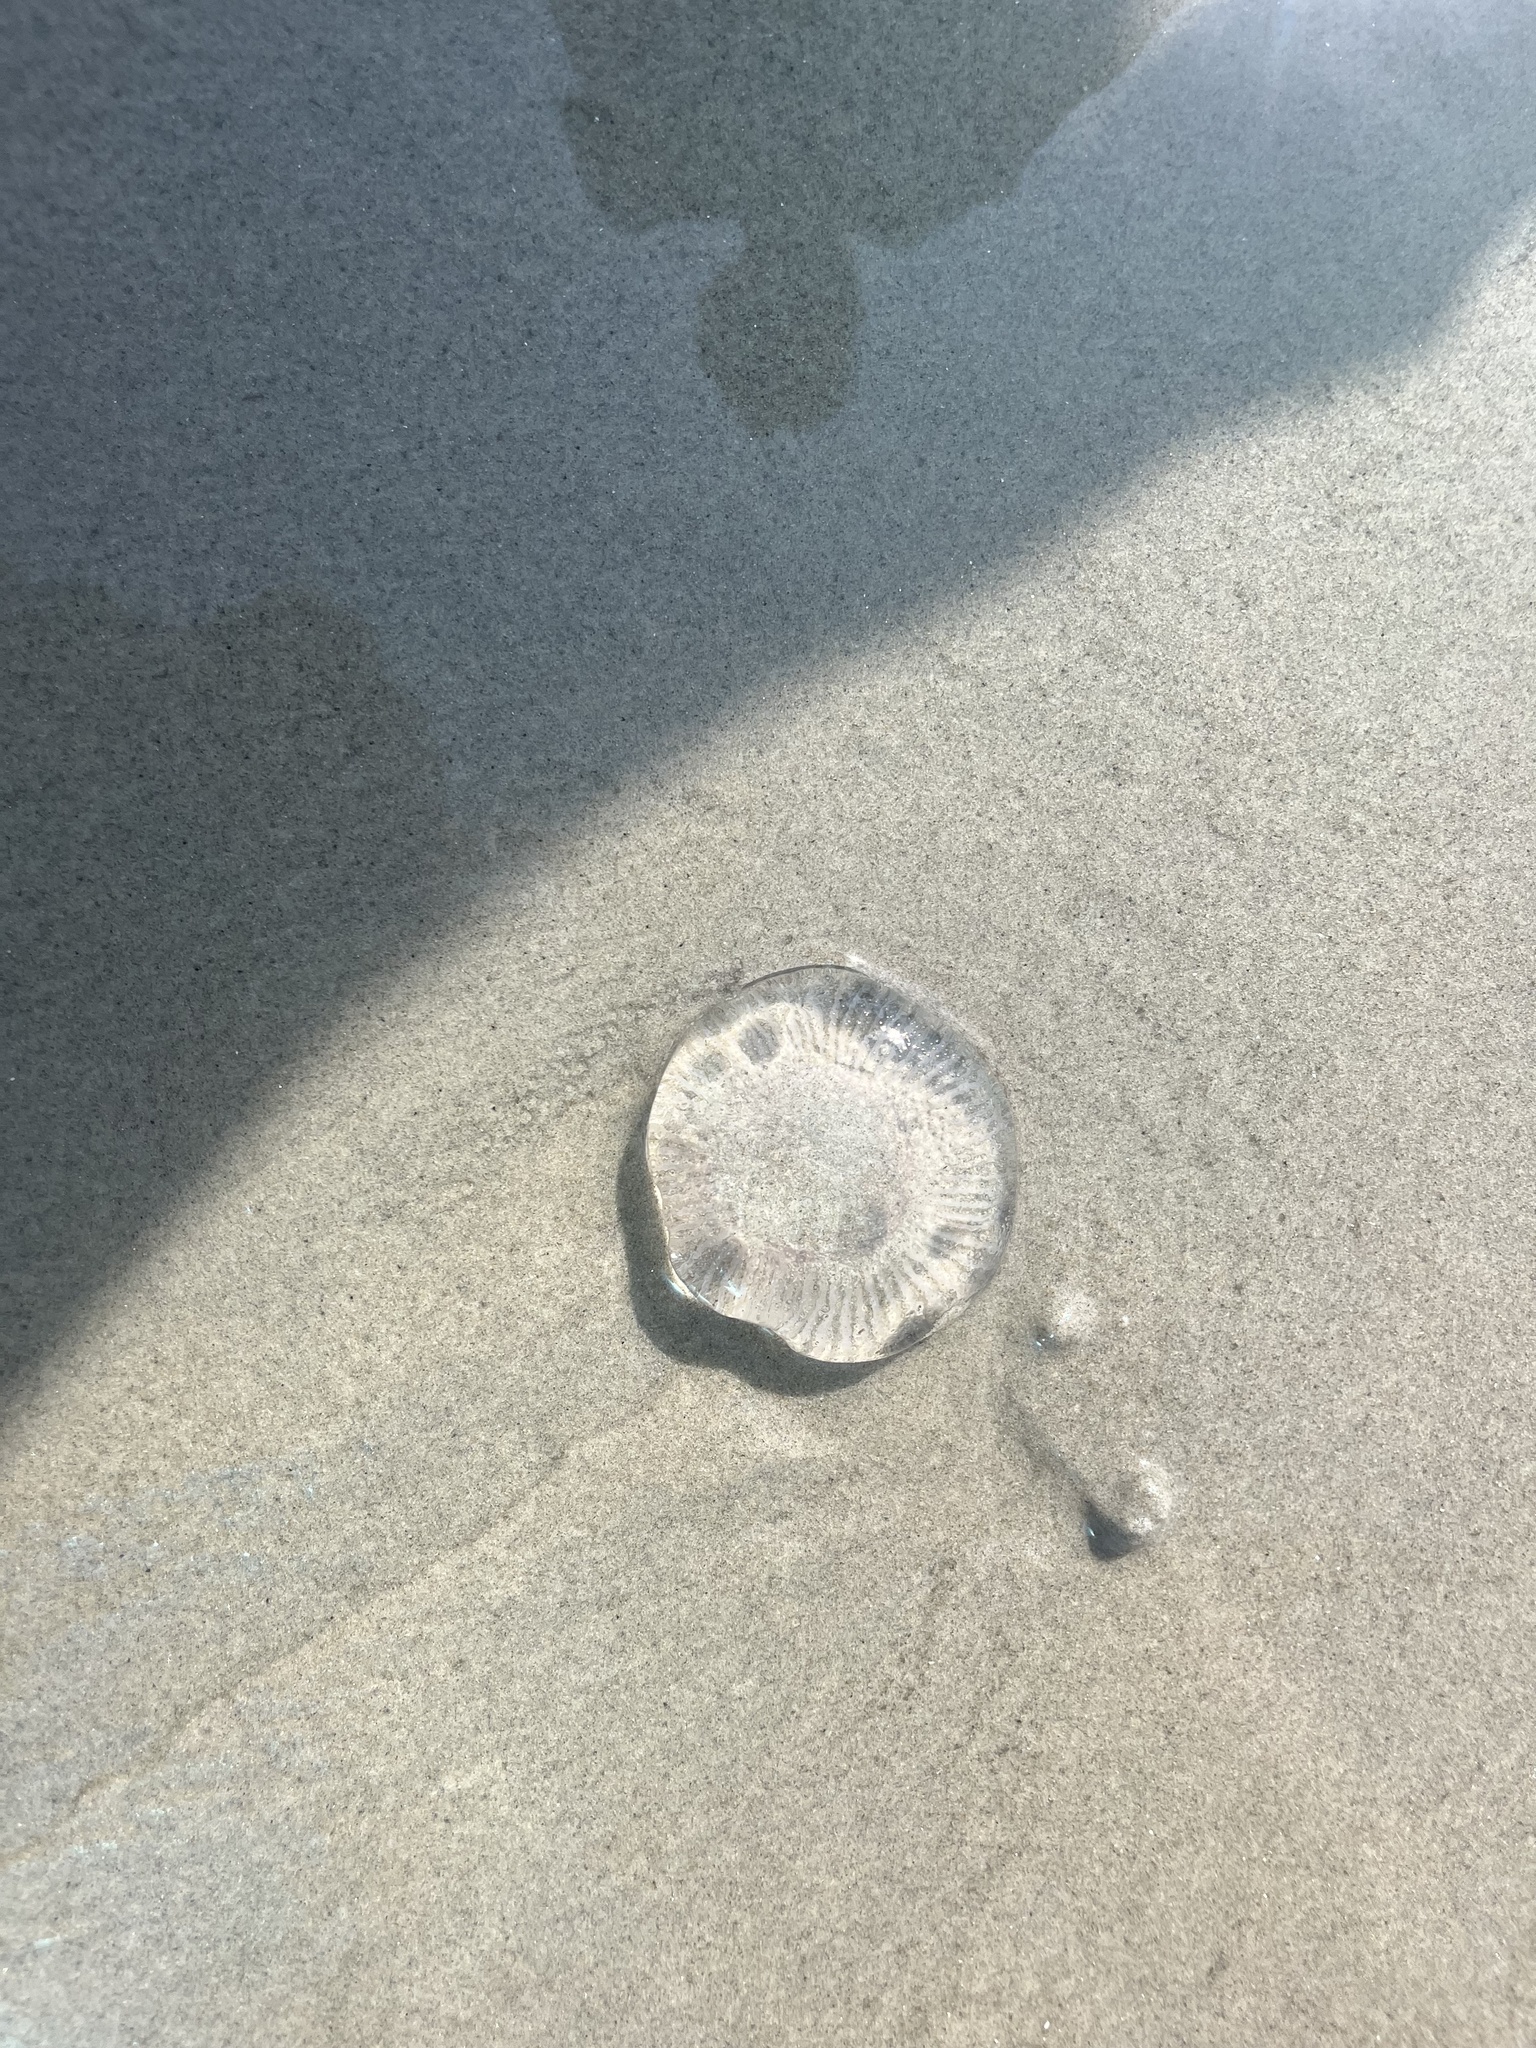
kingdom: Animalia
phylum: Cnidaria
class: Hydrozoa
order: Leptothecata
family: Aequoreidae
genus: Rhacostoma
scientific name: Rhacostoma atlanticum
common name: Lined water jelly
